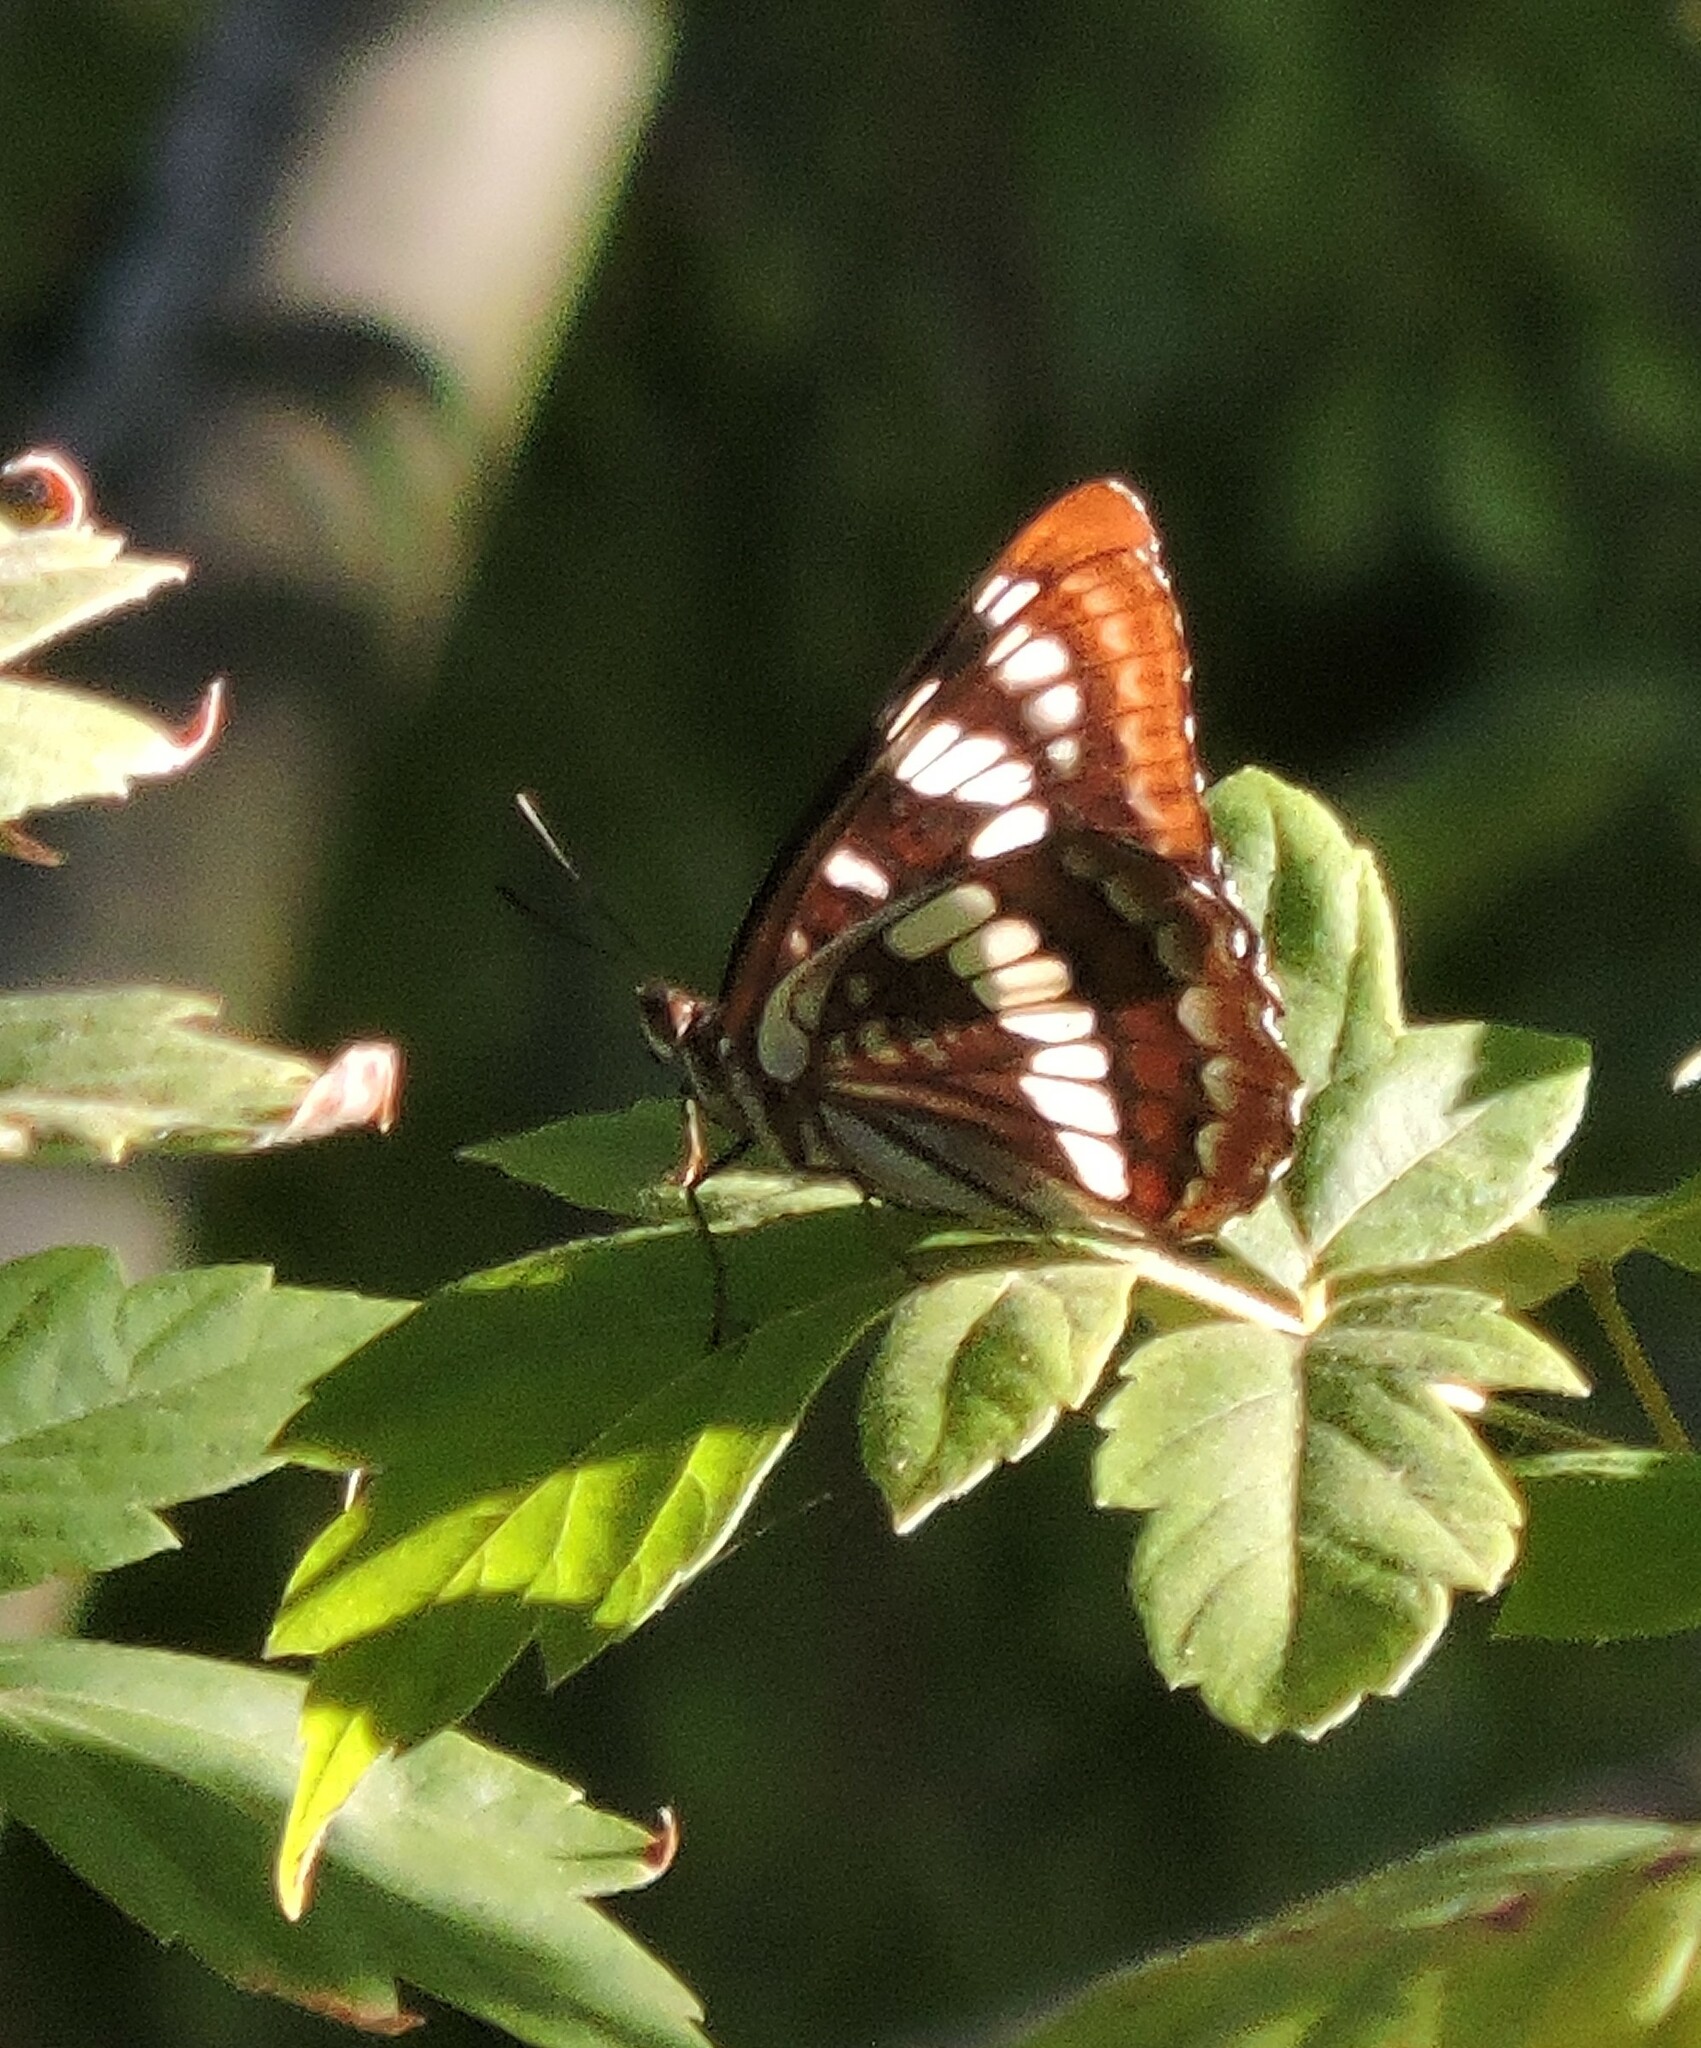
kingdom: Animalia
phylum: Arthropoda
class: Insecta
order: Lepidoptera
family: Nymphalidae
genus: Limenitis
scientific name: Limenitis lorquini
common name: Lorquin's admiral
